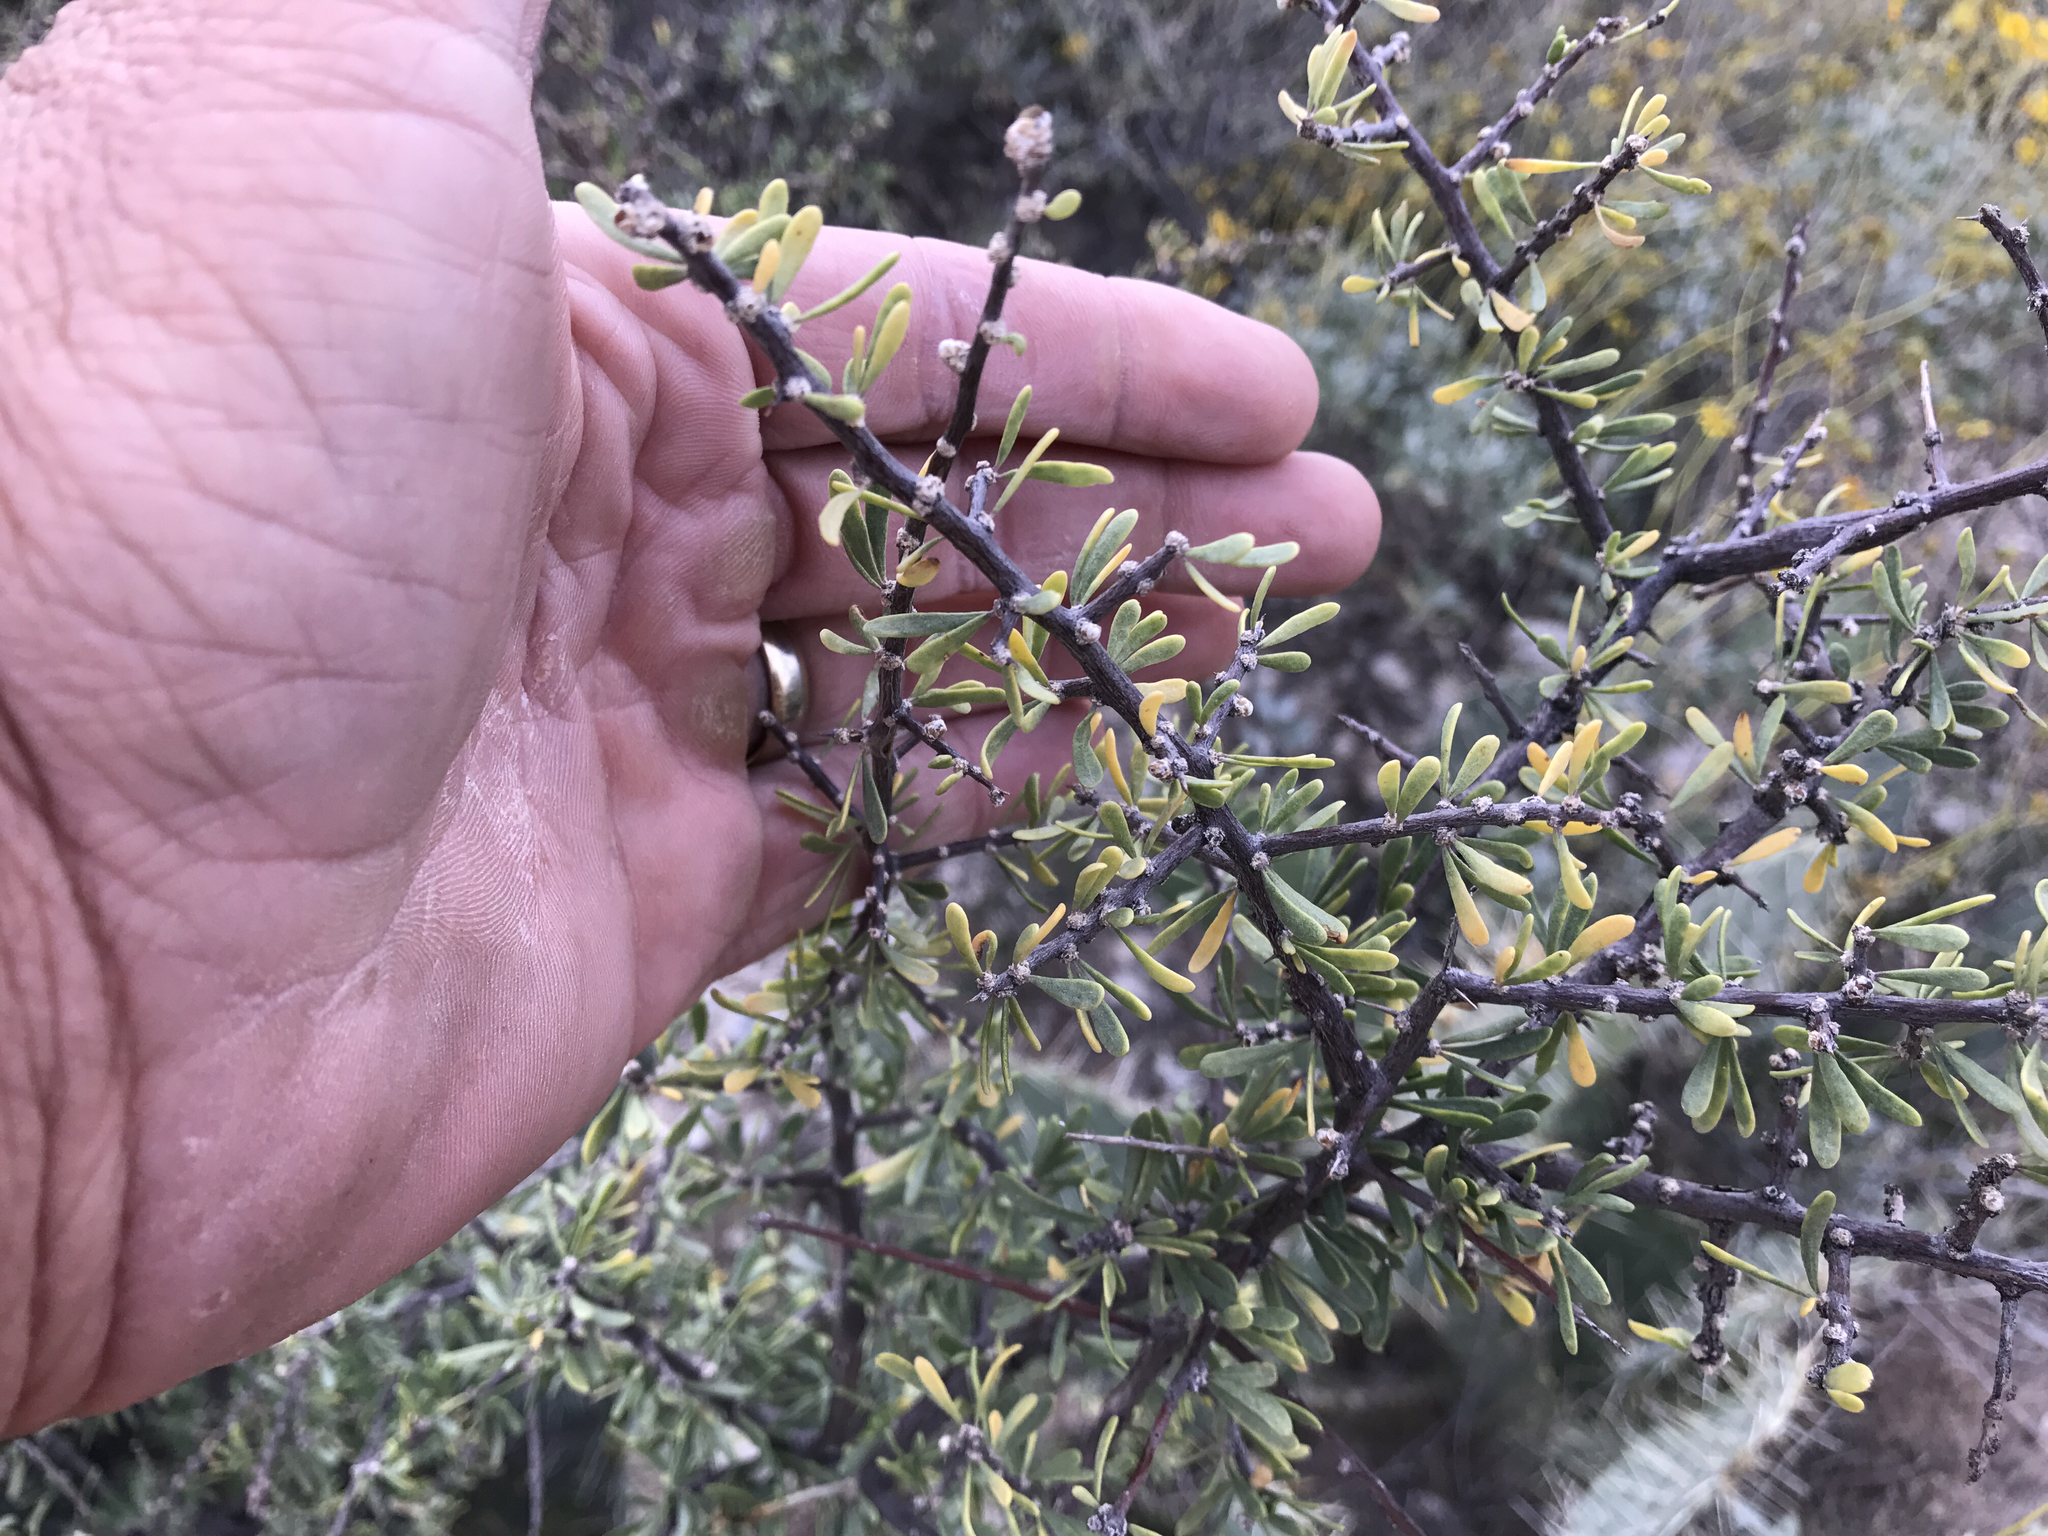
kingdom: Plantae
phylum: Tracheophyta
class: Magnoliopsida
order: Solanales
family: Solanaceae
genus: Lycium
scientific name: Lycium berlandieri
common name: Berlandier wolfberry
